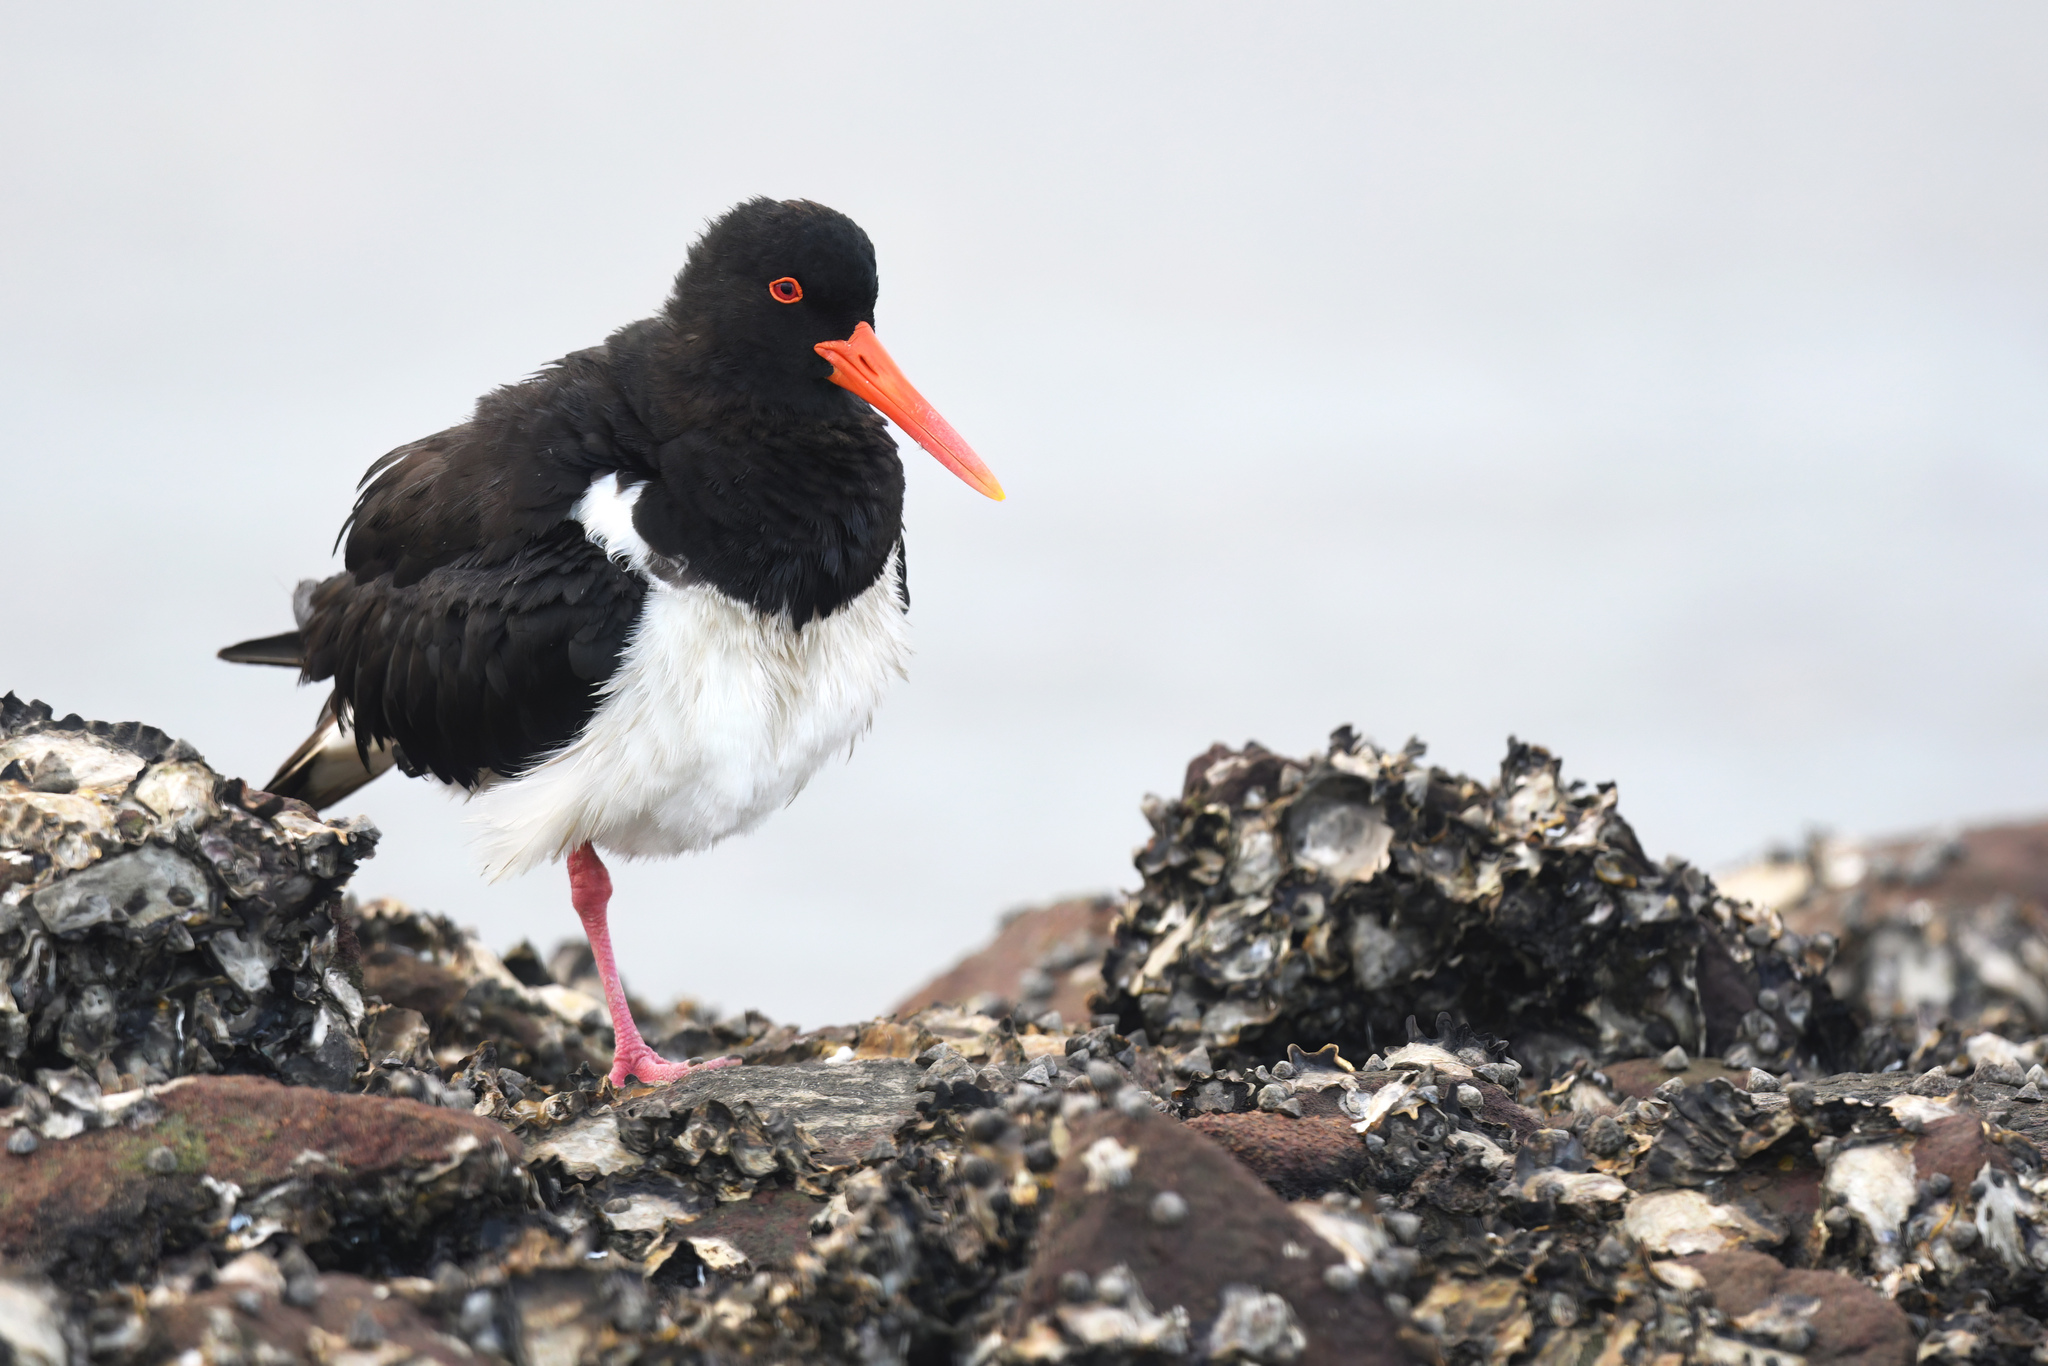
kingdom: Animalia
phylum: Chordata
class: Aves
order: Charadriiformes
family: Haematopodidae
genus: Haematopus
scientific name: Haematopus longirostris
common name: Pied oystercatcher
